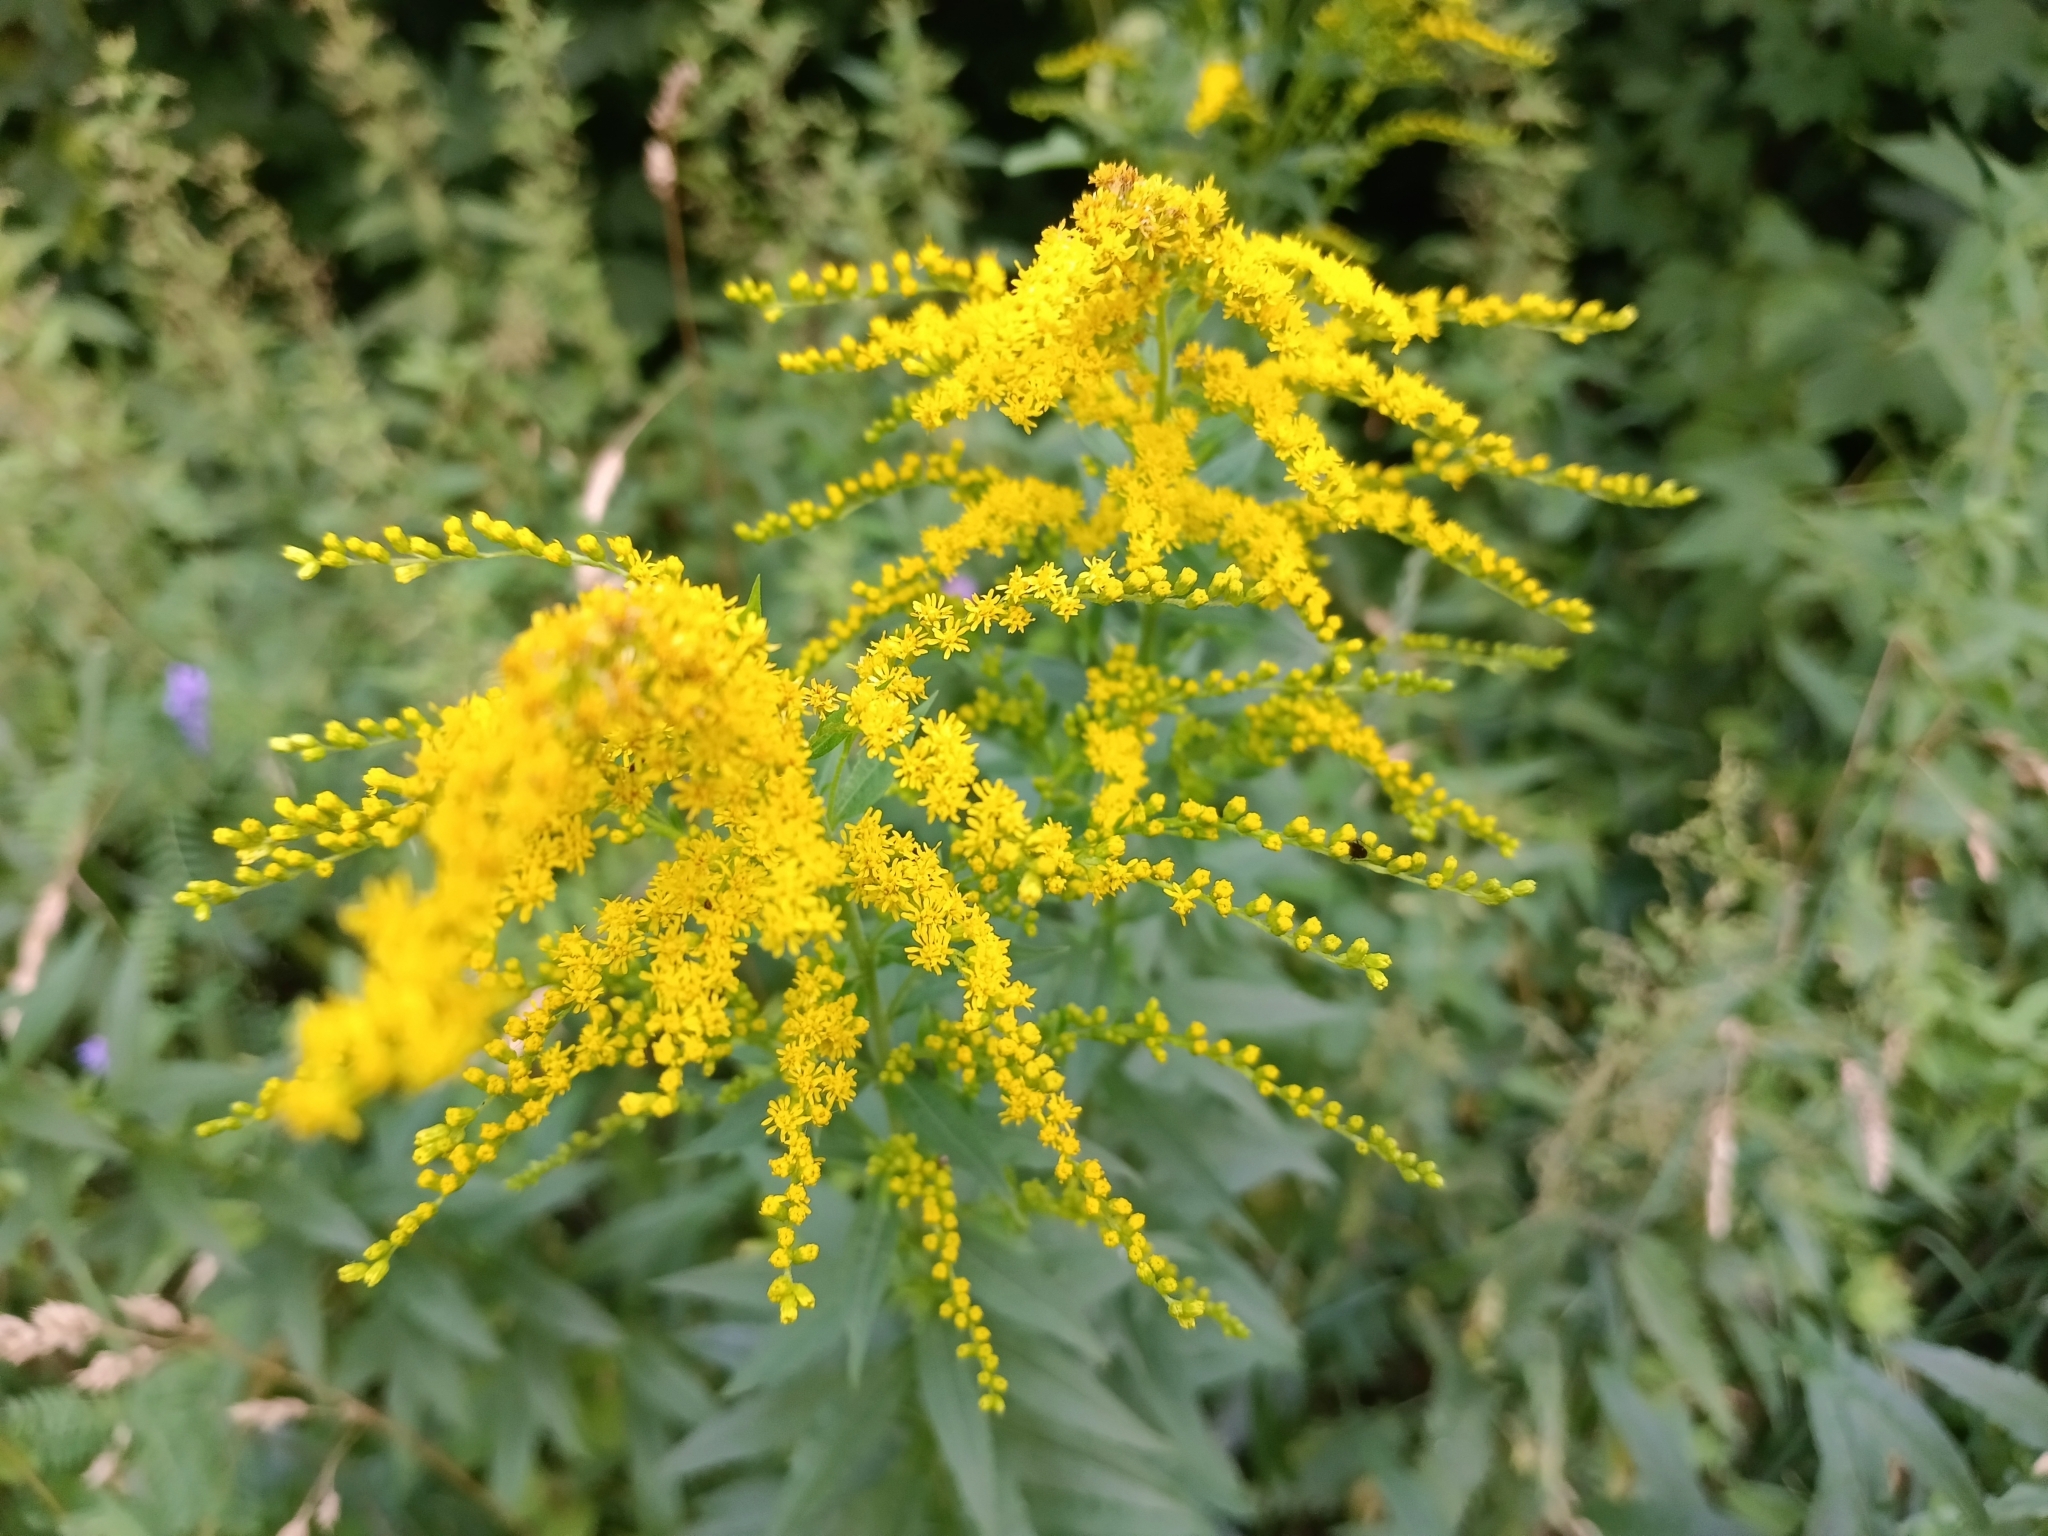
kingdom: Plantae
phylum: Tracheophyta
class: Magnoliopsida
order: Asterales
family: Asteraceae
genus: Solidago
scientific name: Solidago canadensis
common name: Canada goldenrod
